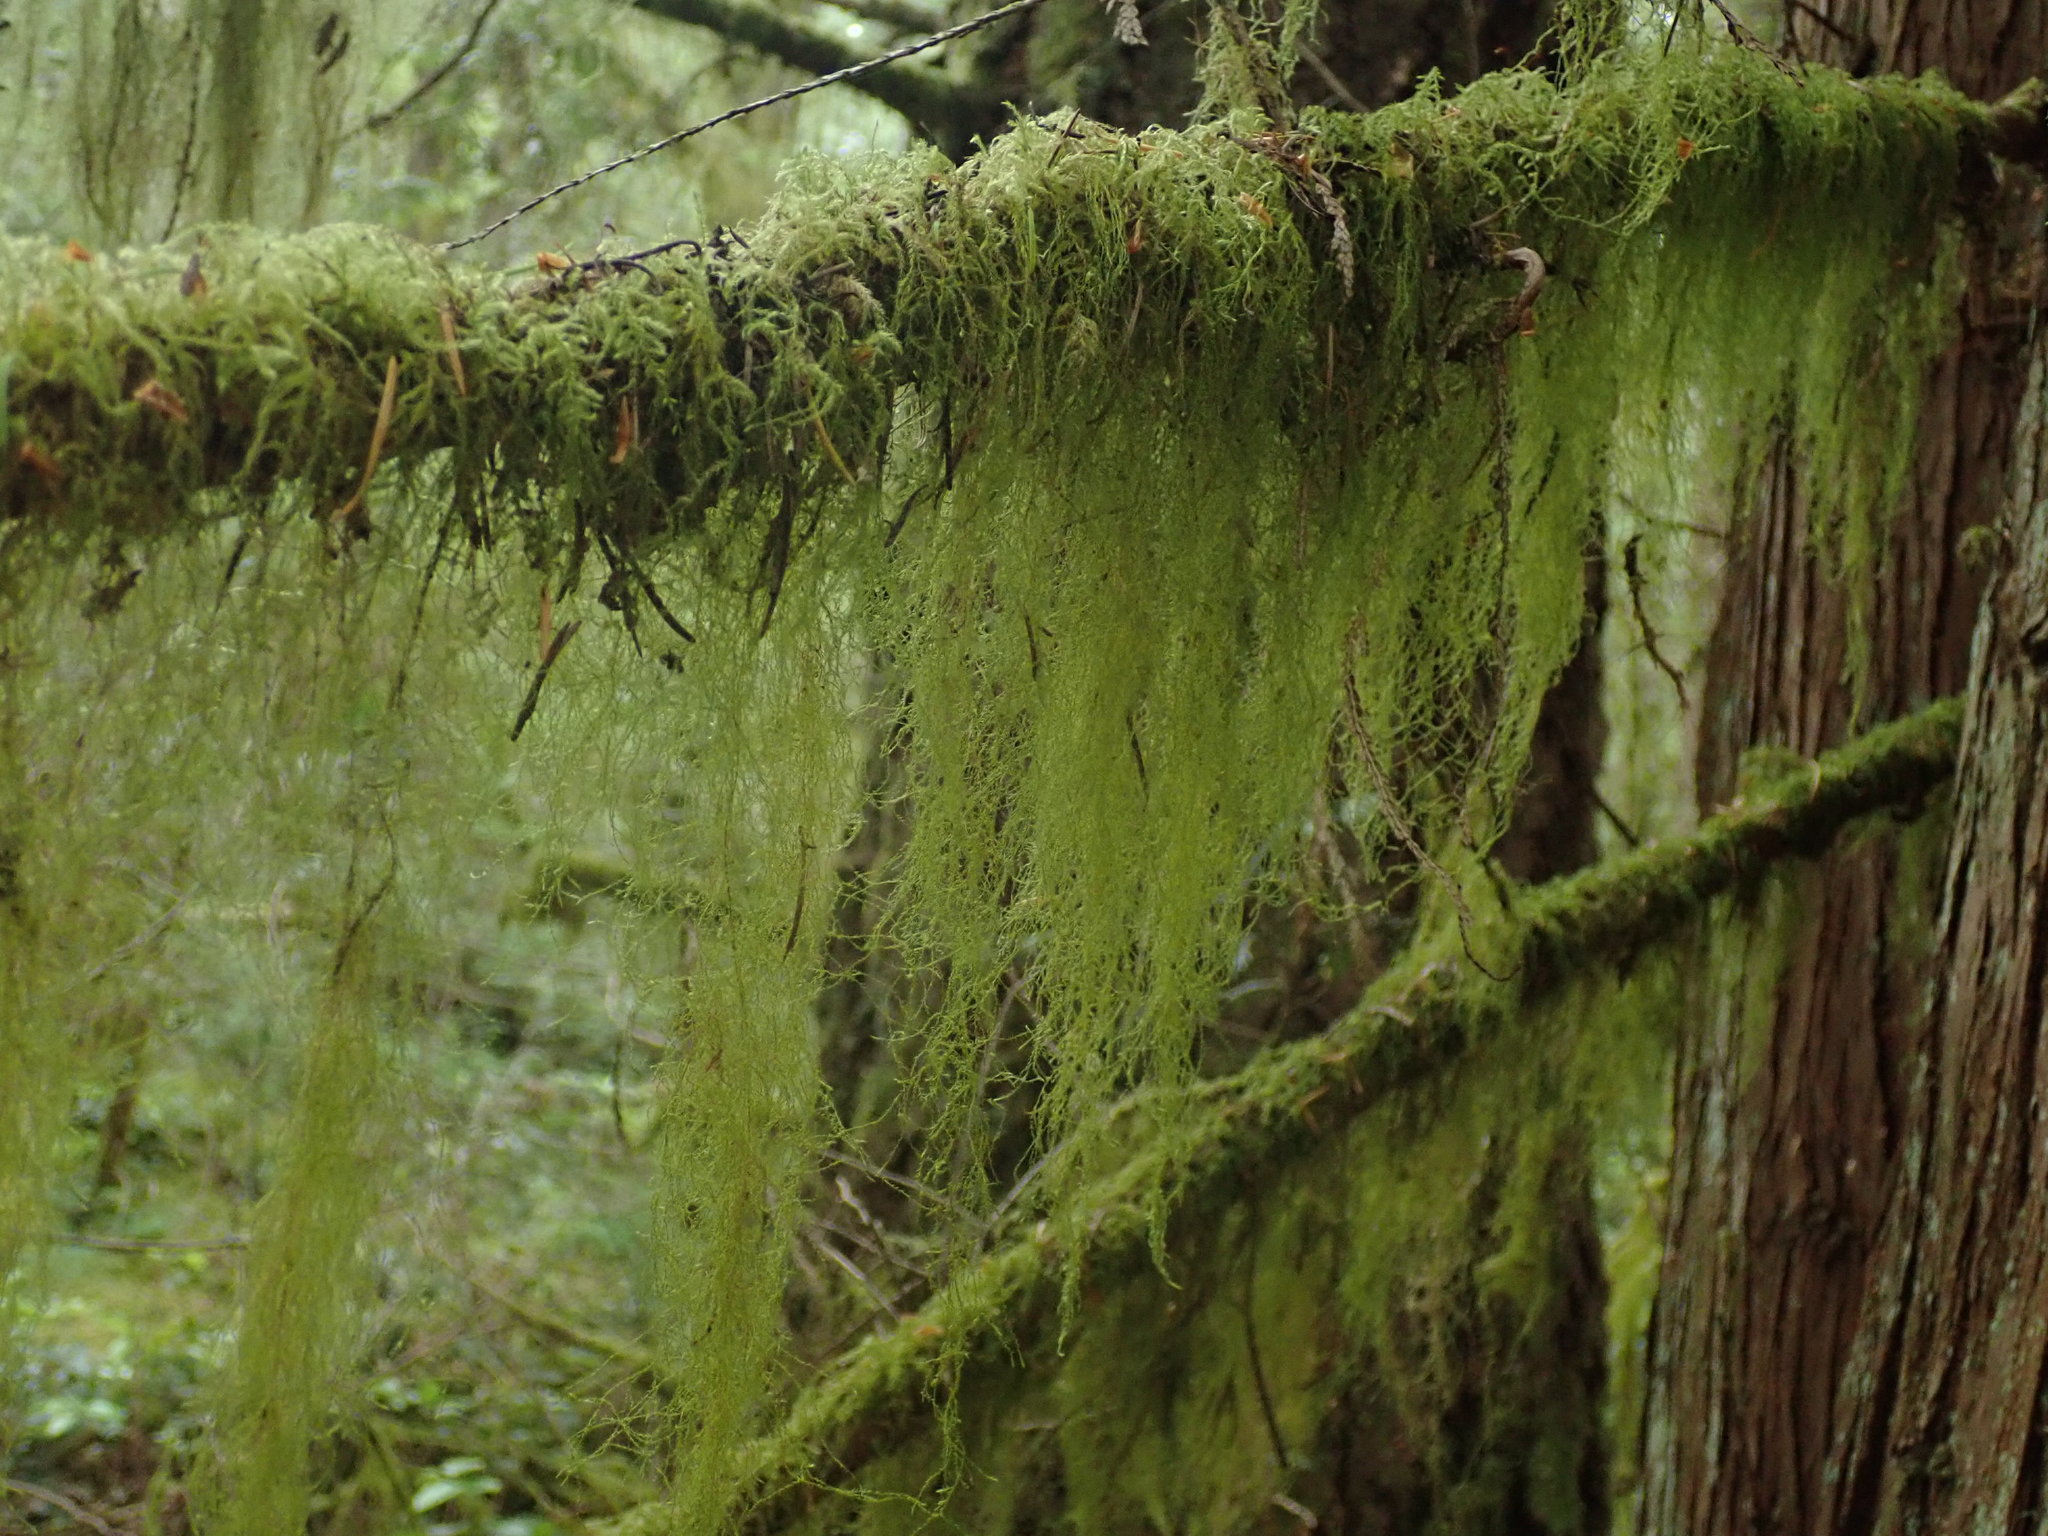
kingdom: Plantae
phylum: Bryophyta
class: Bryopsida
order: Hypnales
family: Lembophyllaceae
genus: Pseudisothecium
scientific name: Pseudisothecium stoloniferum
